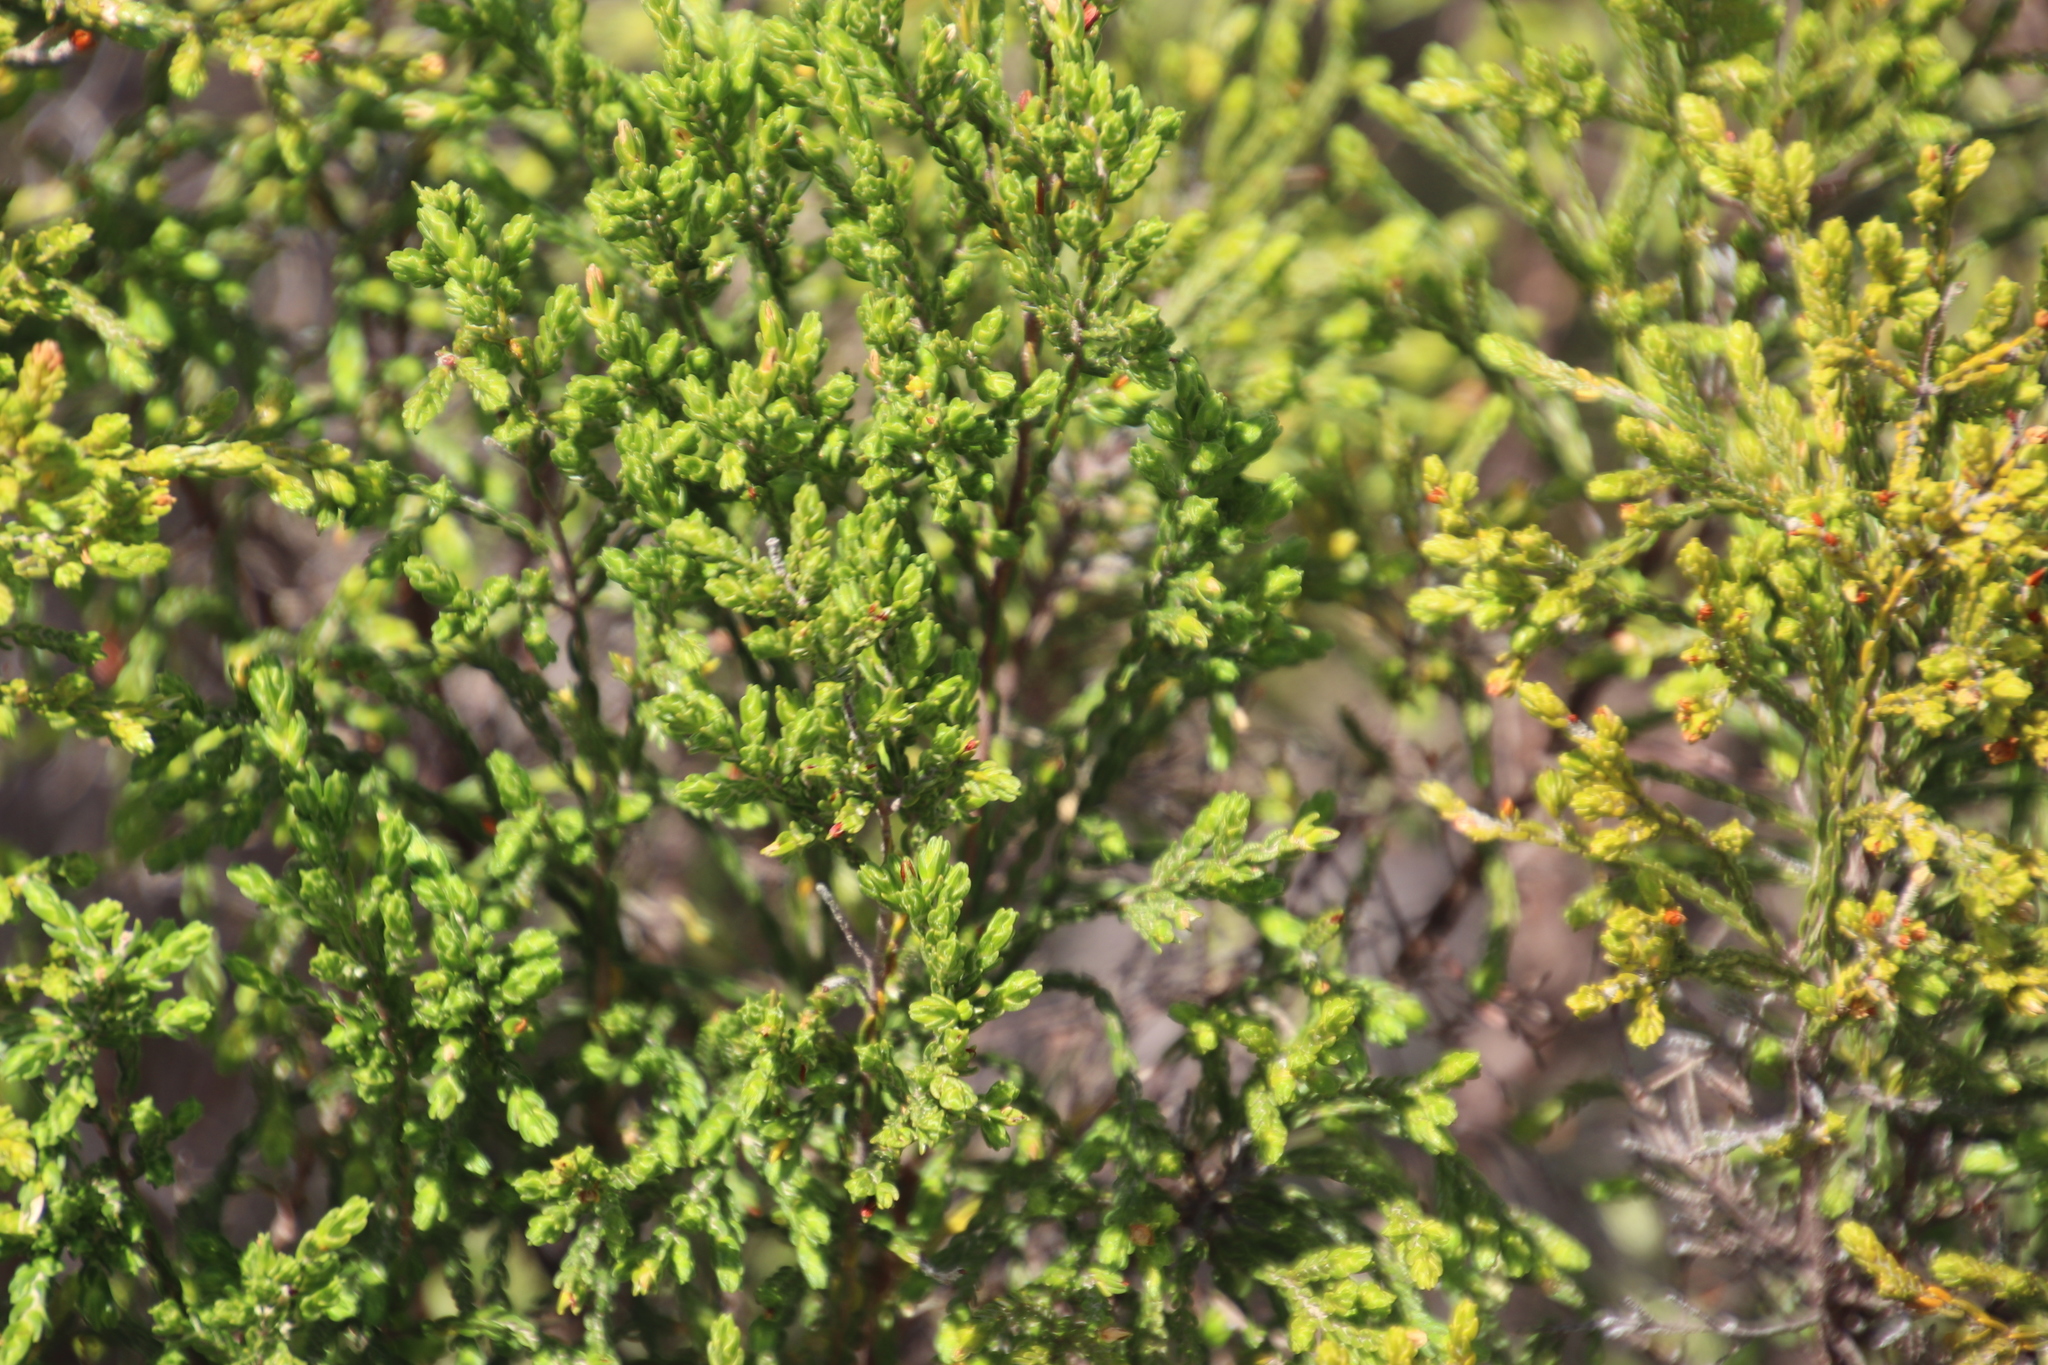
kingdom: Plantae
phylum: Tracheophyta
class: Magnoliopsida
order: Malvales
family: Thymelaeaceae
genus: Passerina
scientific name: Passerina corymbosa
